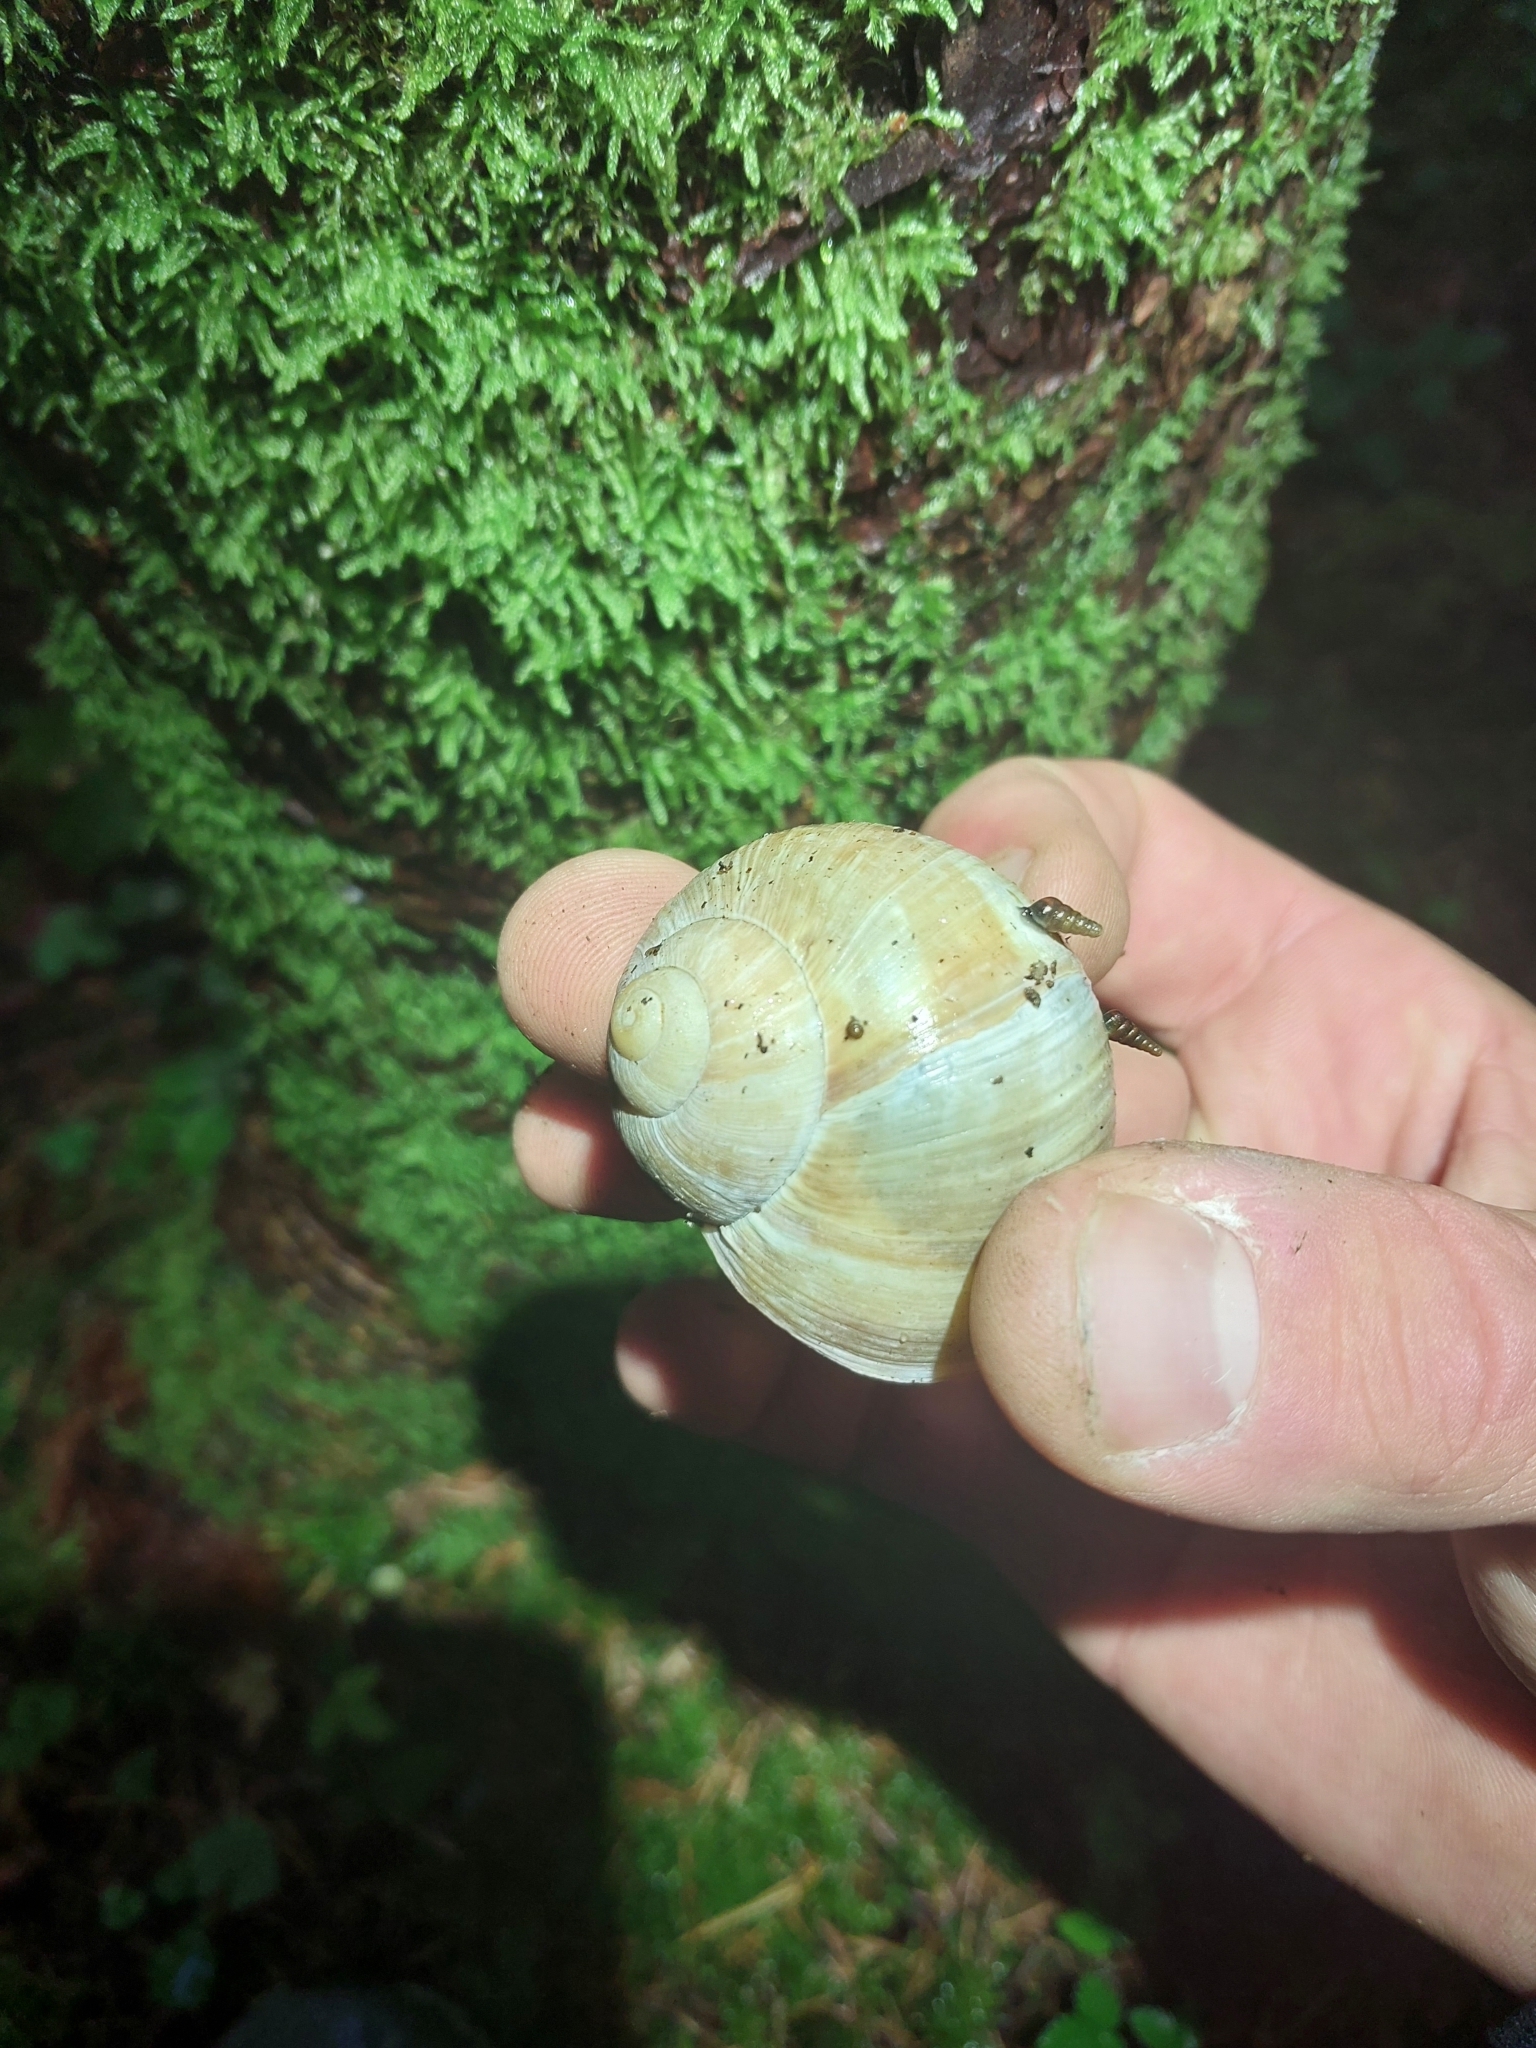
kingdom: Animalia
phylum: Mollusca
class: Gastropoda
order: Stylommatophora
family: Helicidae
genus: Helix
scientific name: Helix pomatia
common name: Roman snail
